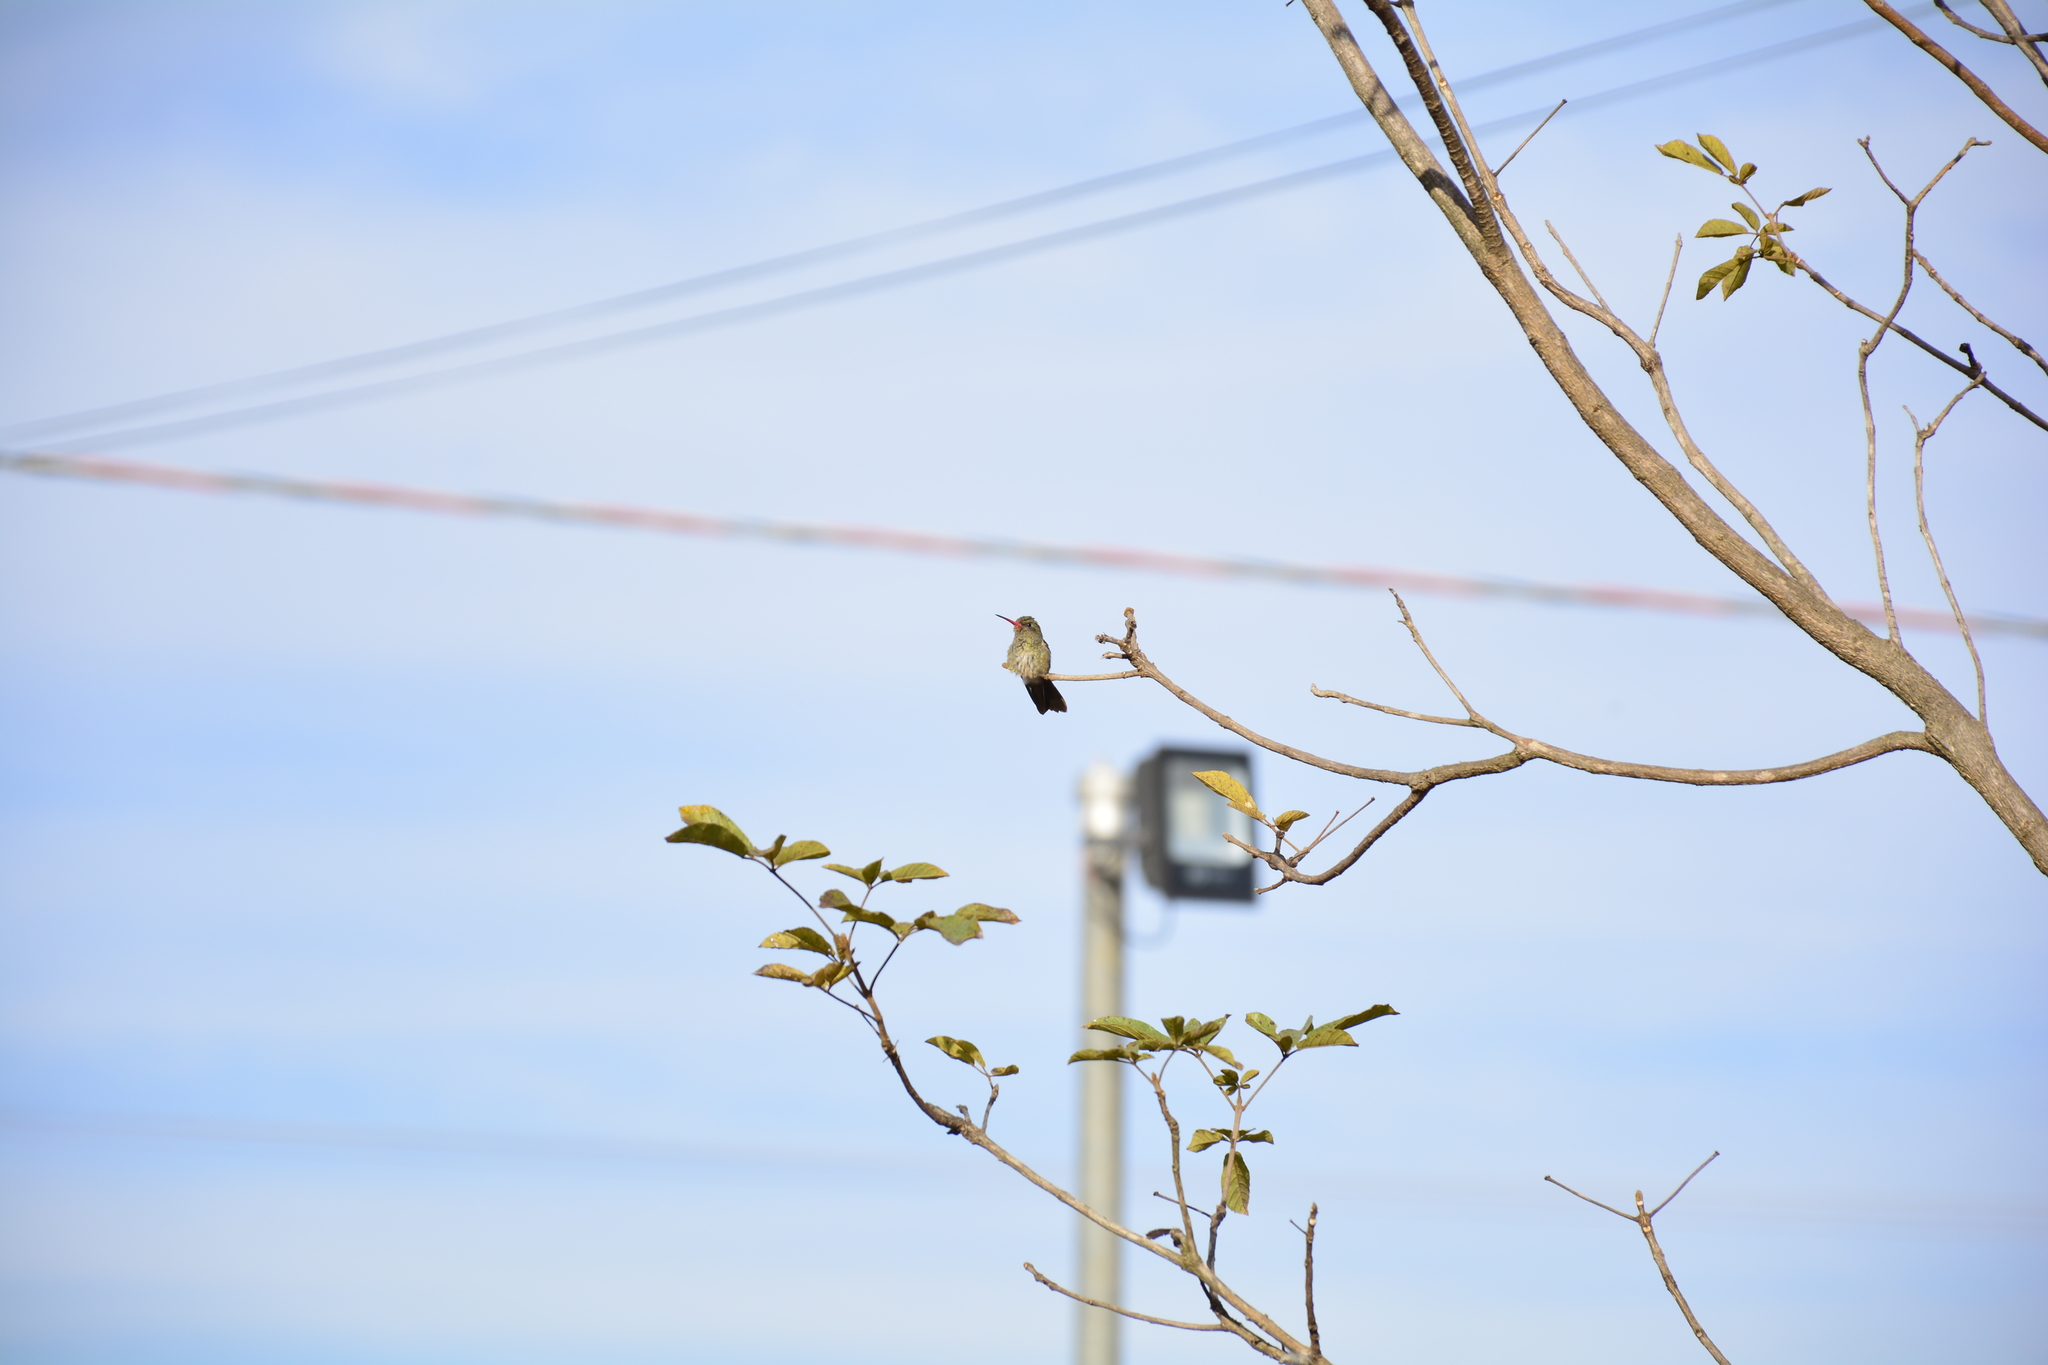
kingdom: Animalia
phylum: Chordata
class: Aves
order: Apodiformes
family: Trochilidae
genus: Hylocharis
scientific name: Hylocharis chrysura
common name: Gilded sapphire
